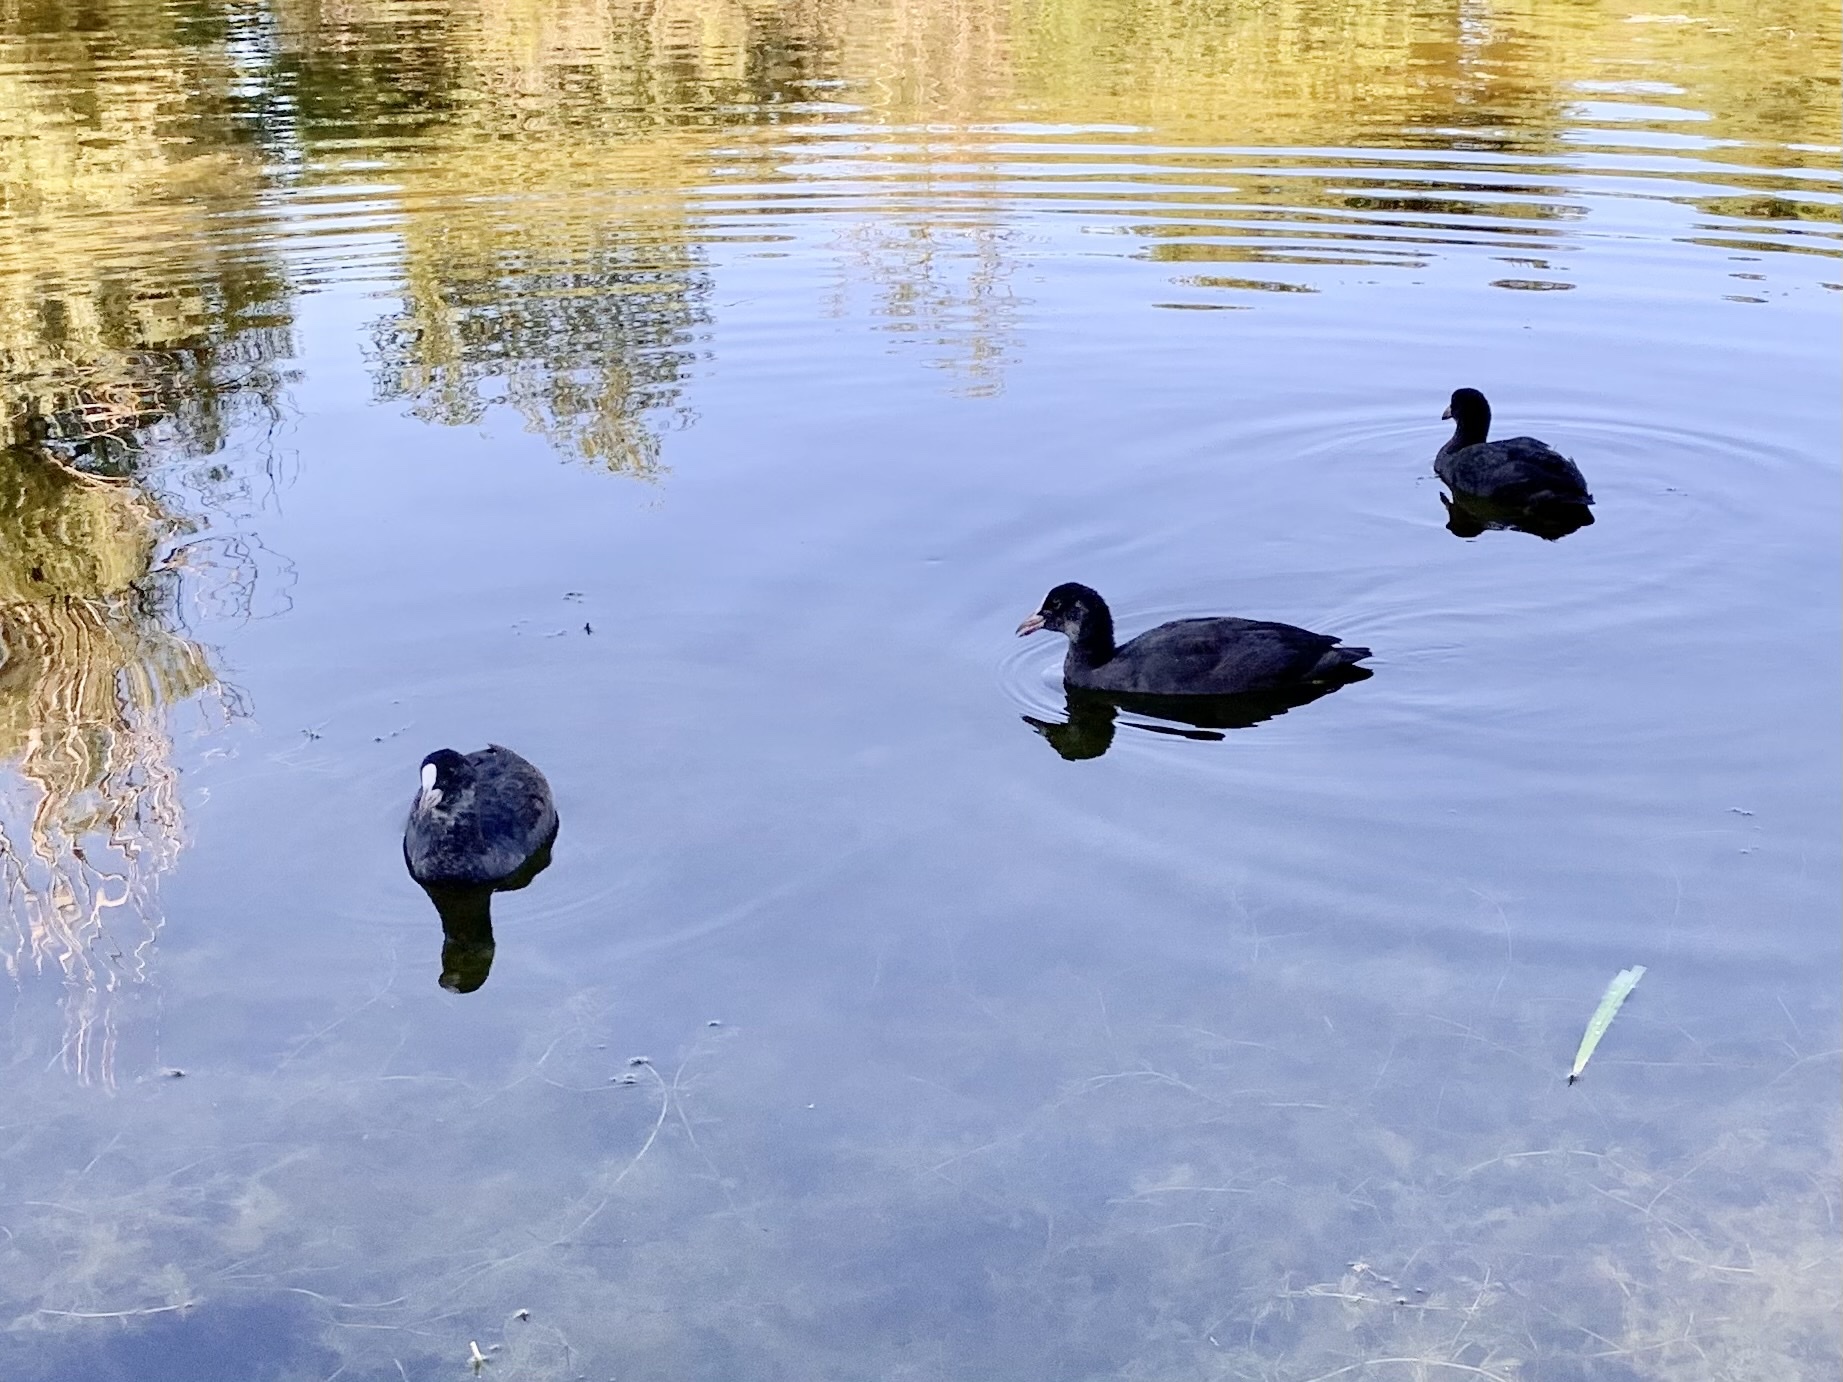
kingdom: Animalia
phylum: Chordata
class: Aves
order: Gruiformes
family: Rallidae
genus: Fulica
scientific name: Fulica atra
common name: Eurasian coot
